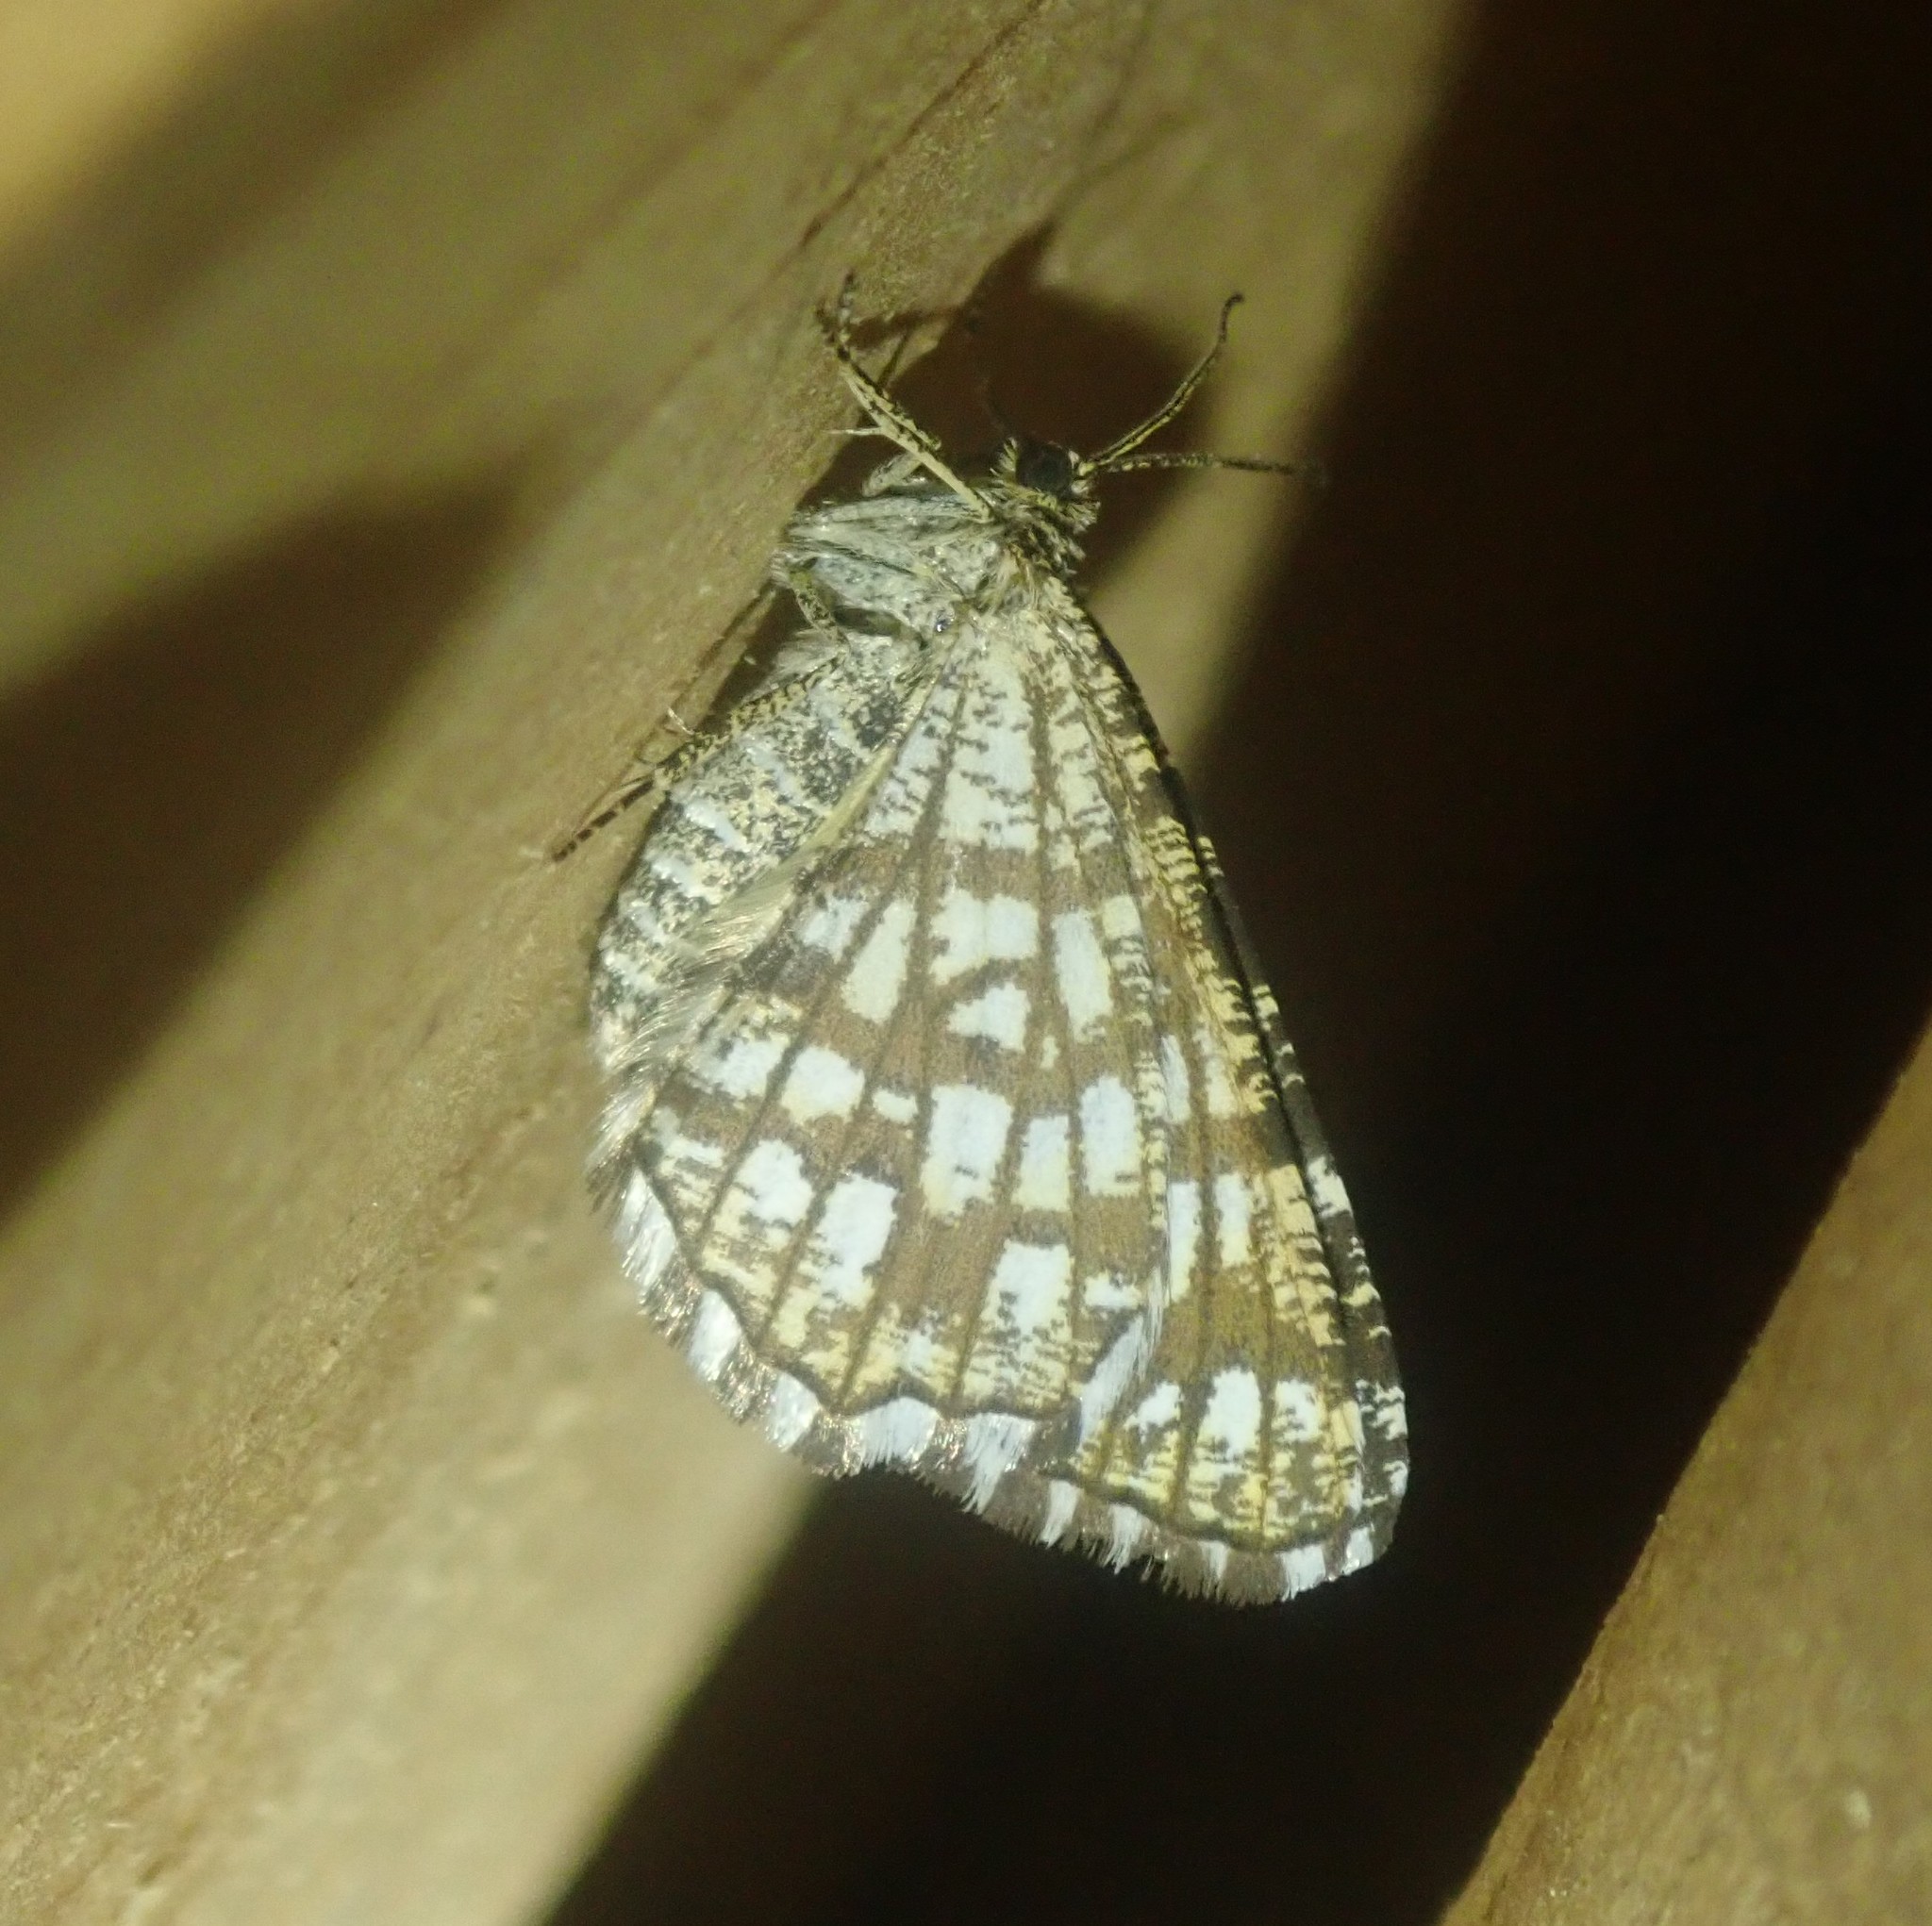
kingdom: Animalia
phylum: Arthropoda
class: Insecta
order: Lepidoptera
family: Geometridae
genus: Chiasmia
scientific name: Chiasmia clathrata
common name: Latticed heath
